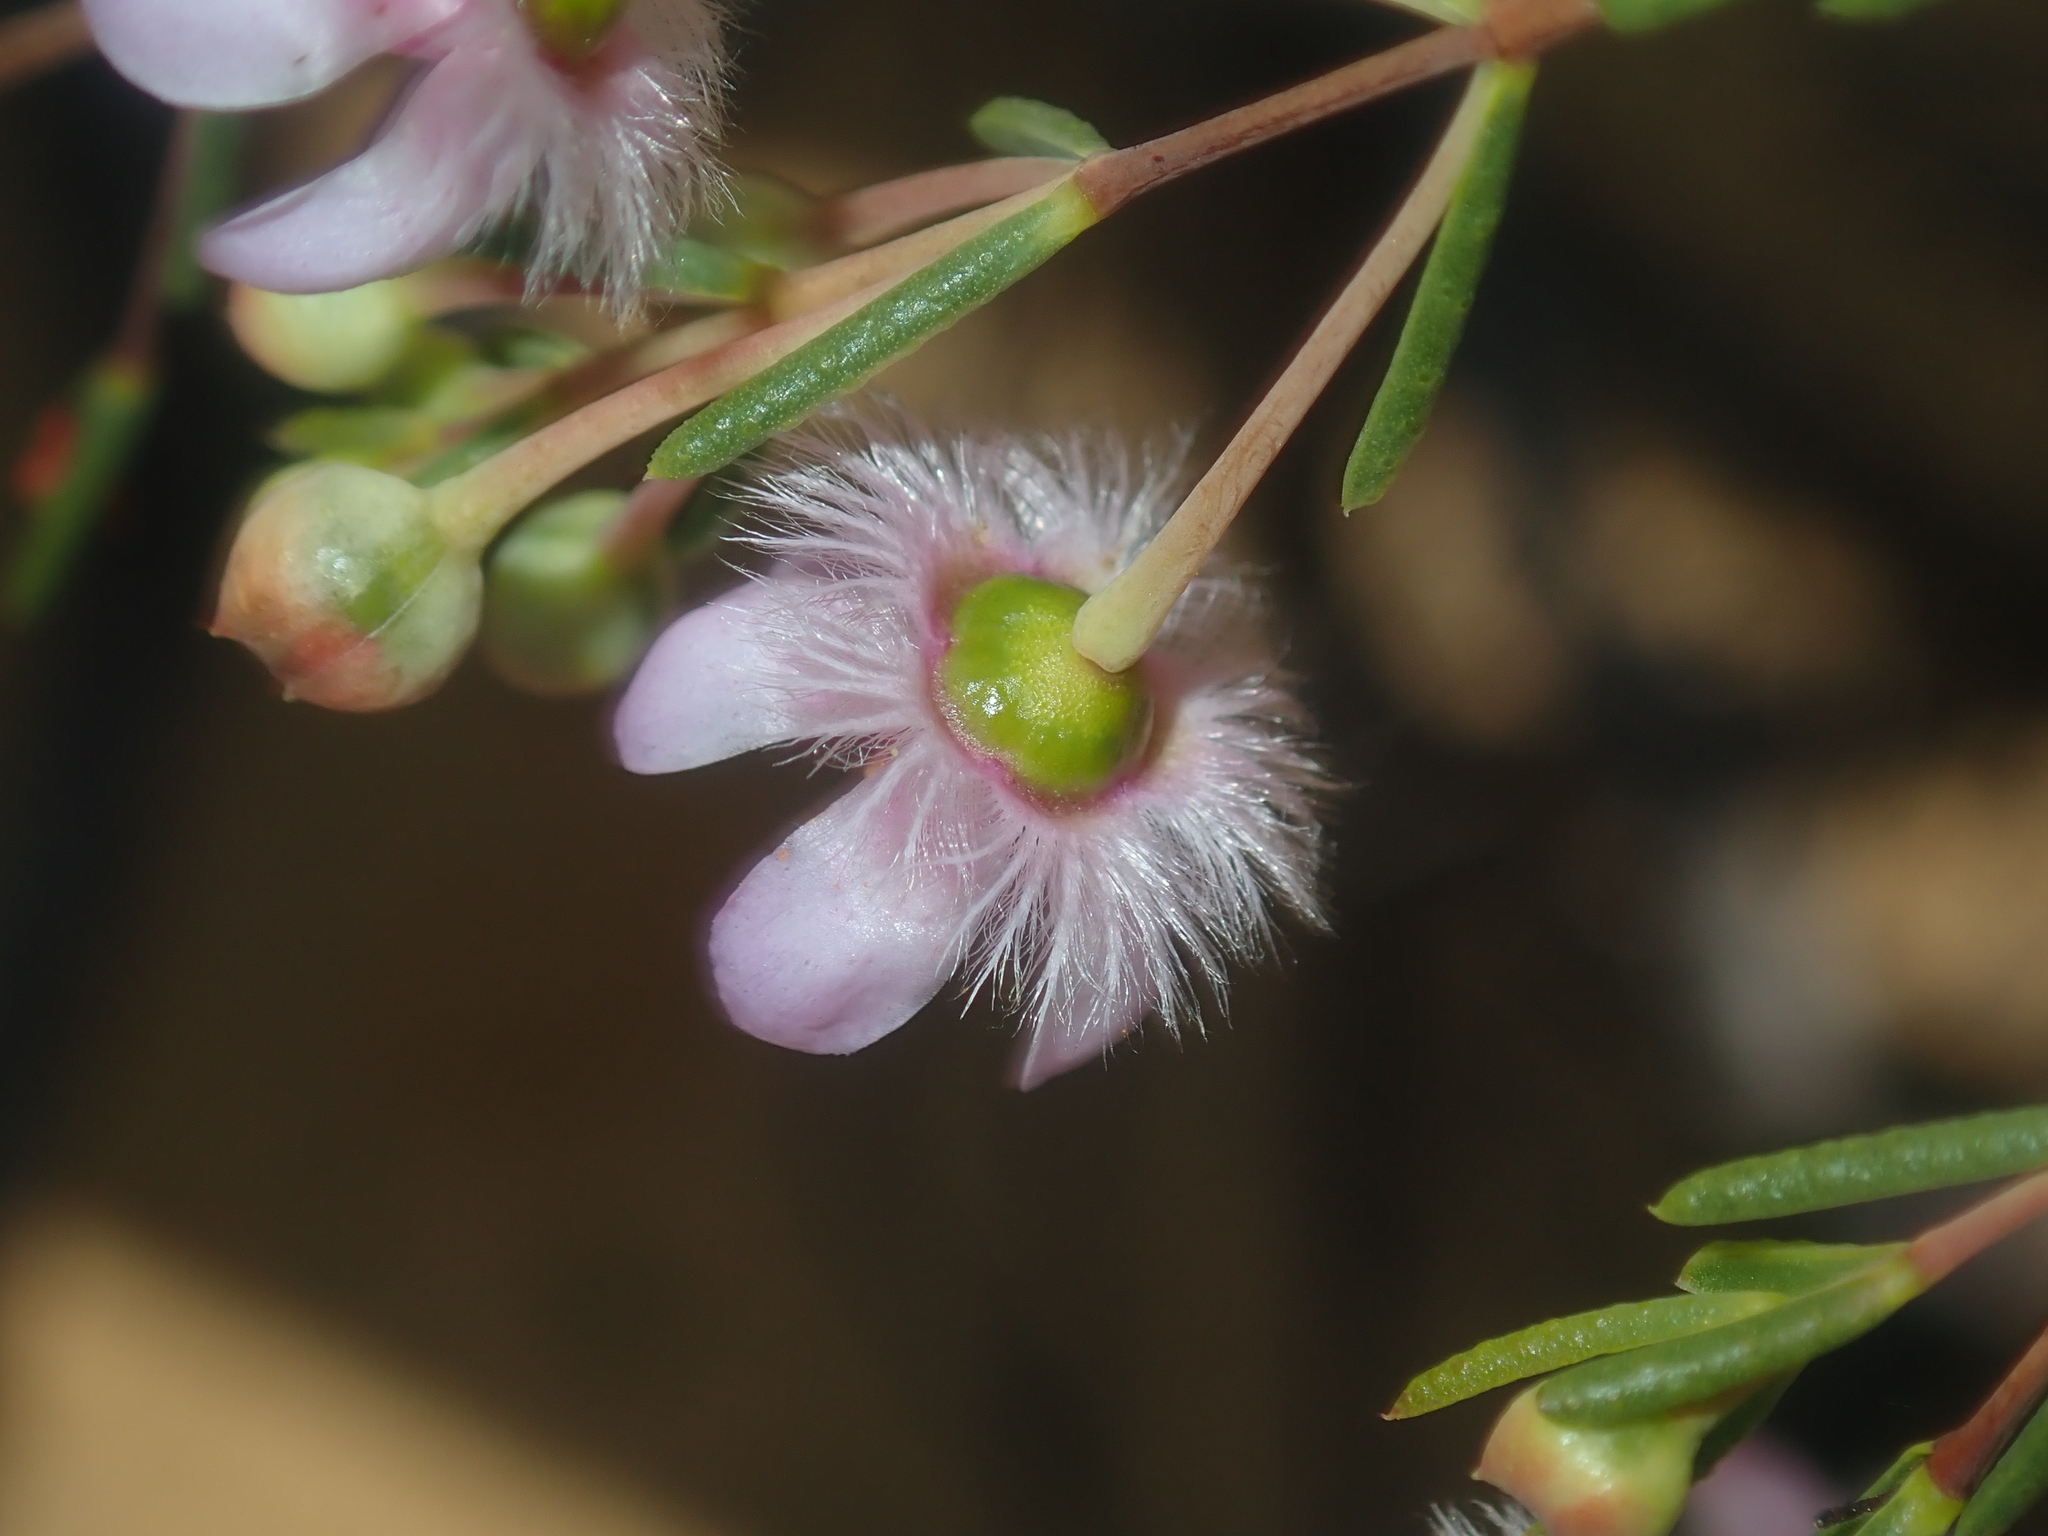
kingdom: Plantae
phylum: Tracheophyta
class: Magnoliopsida
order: Myrtales
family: Myrtaceae
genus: Verticordia
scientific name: Verticordia picta
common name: Painted feather-flower
